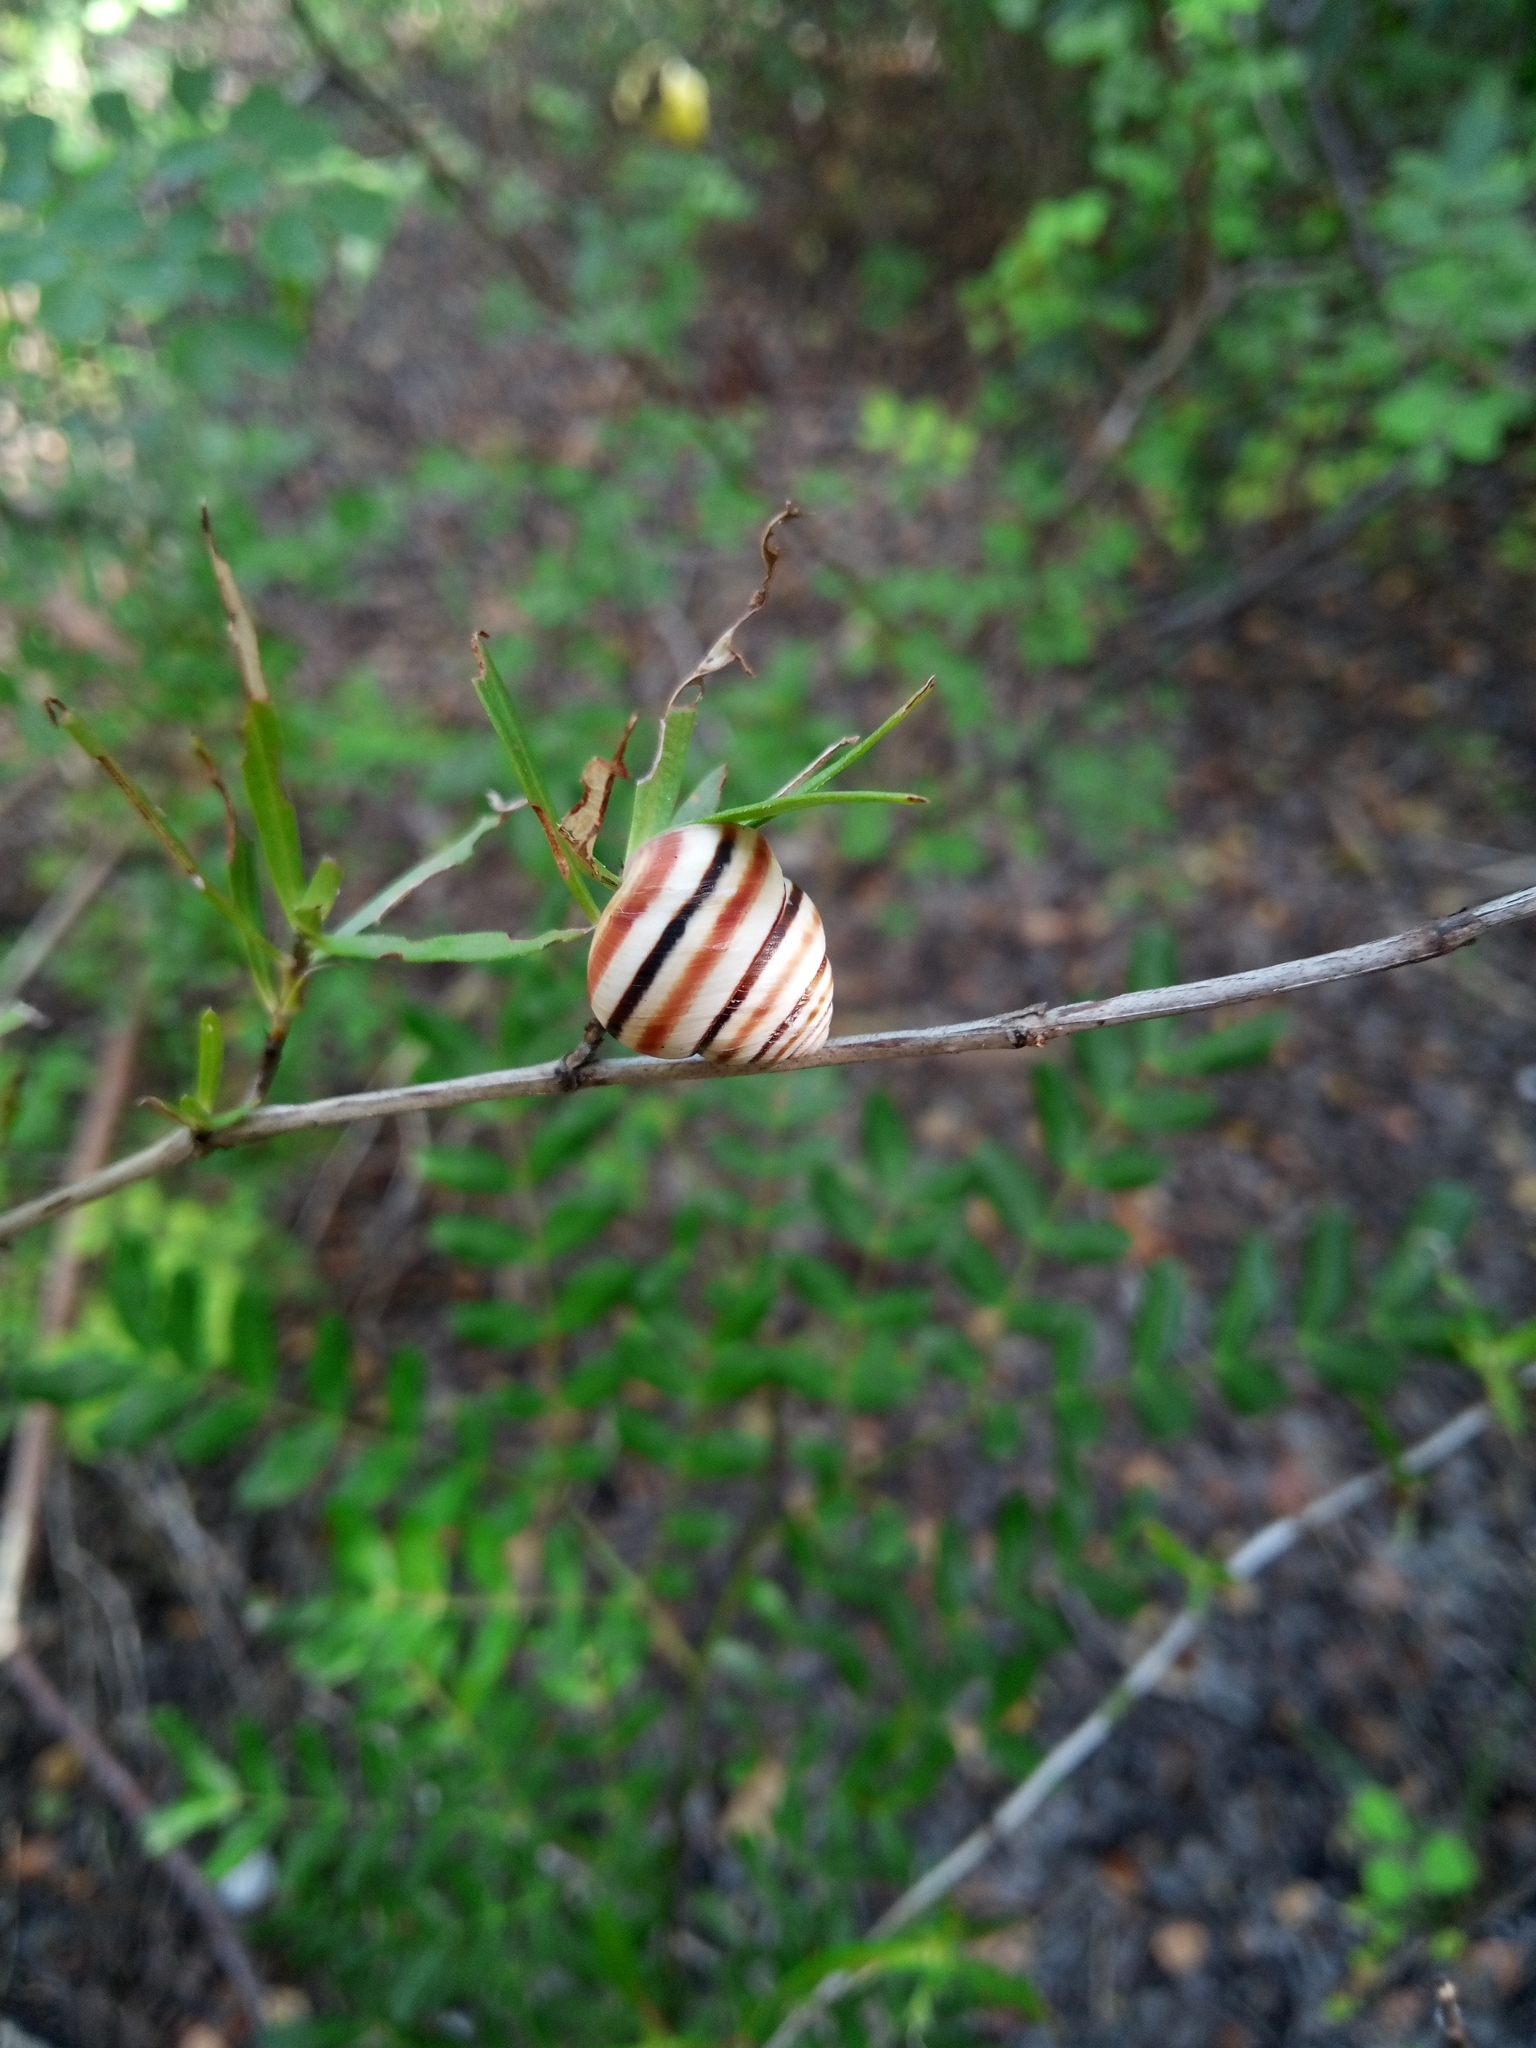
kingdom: Animalia
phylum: Mollusca
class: Gastropoda
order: Stylommatophora
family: Cepolidae
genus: Hemitrochus
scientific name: Hemitrochus varians
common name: Caribbean land snail
